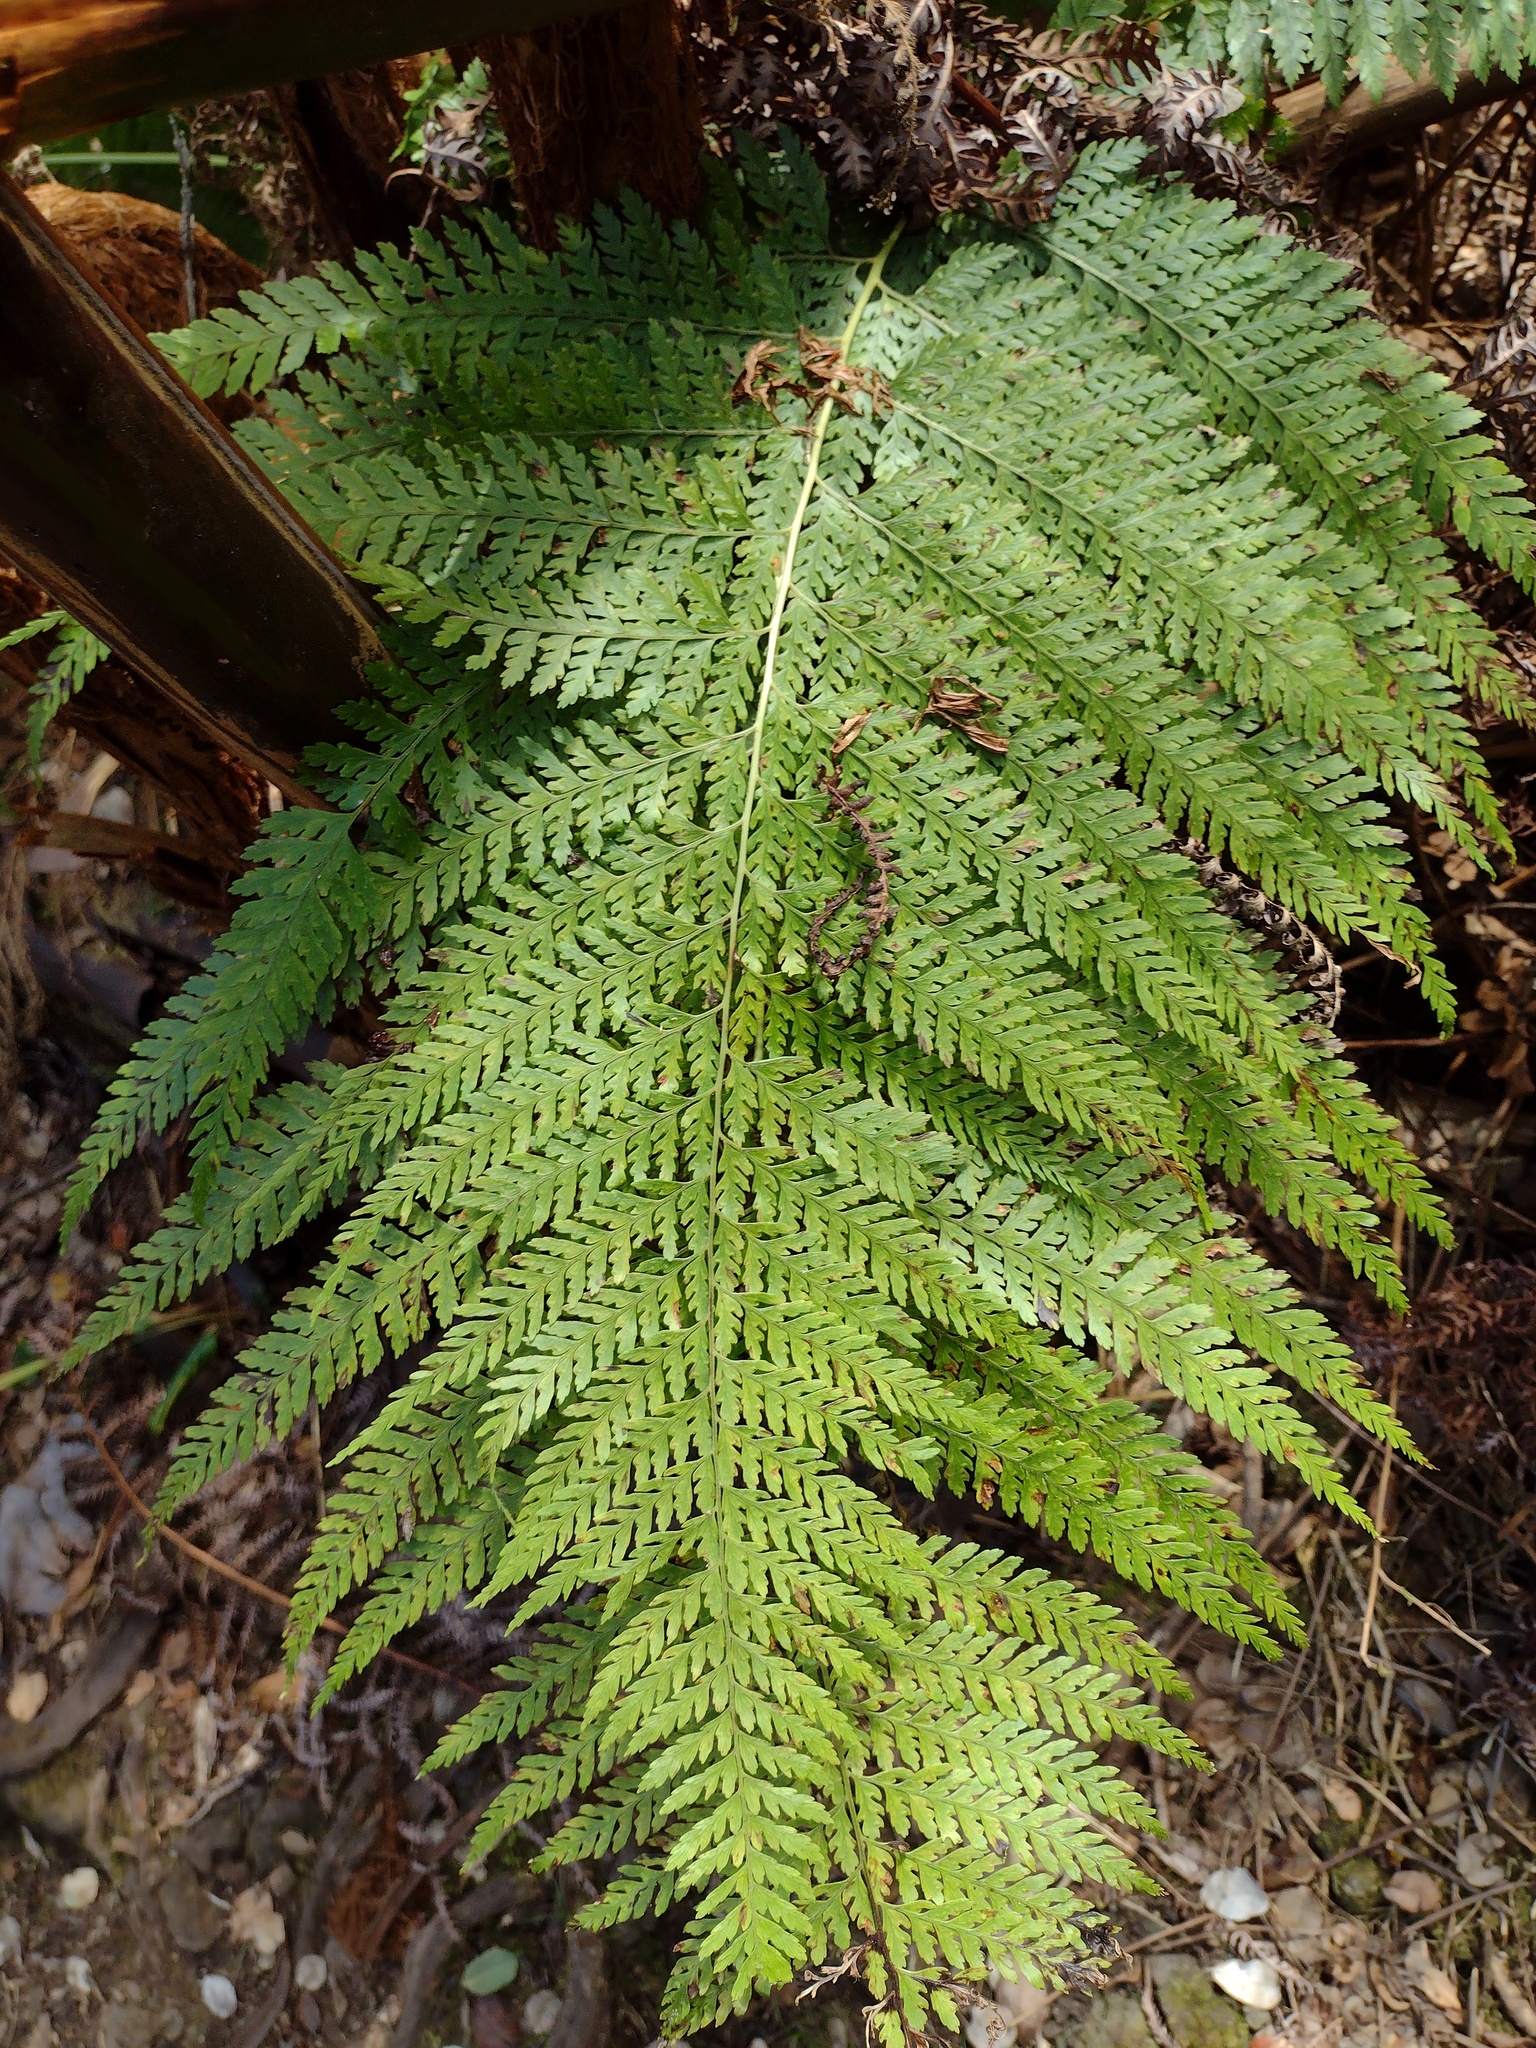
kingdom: Plantae
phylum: Tracheophyta
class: Polypodiopsida
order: Polypodiales
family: Dennstaedtiaceae
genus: Microlepia
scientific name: Microlepia setosa
